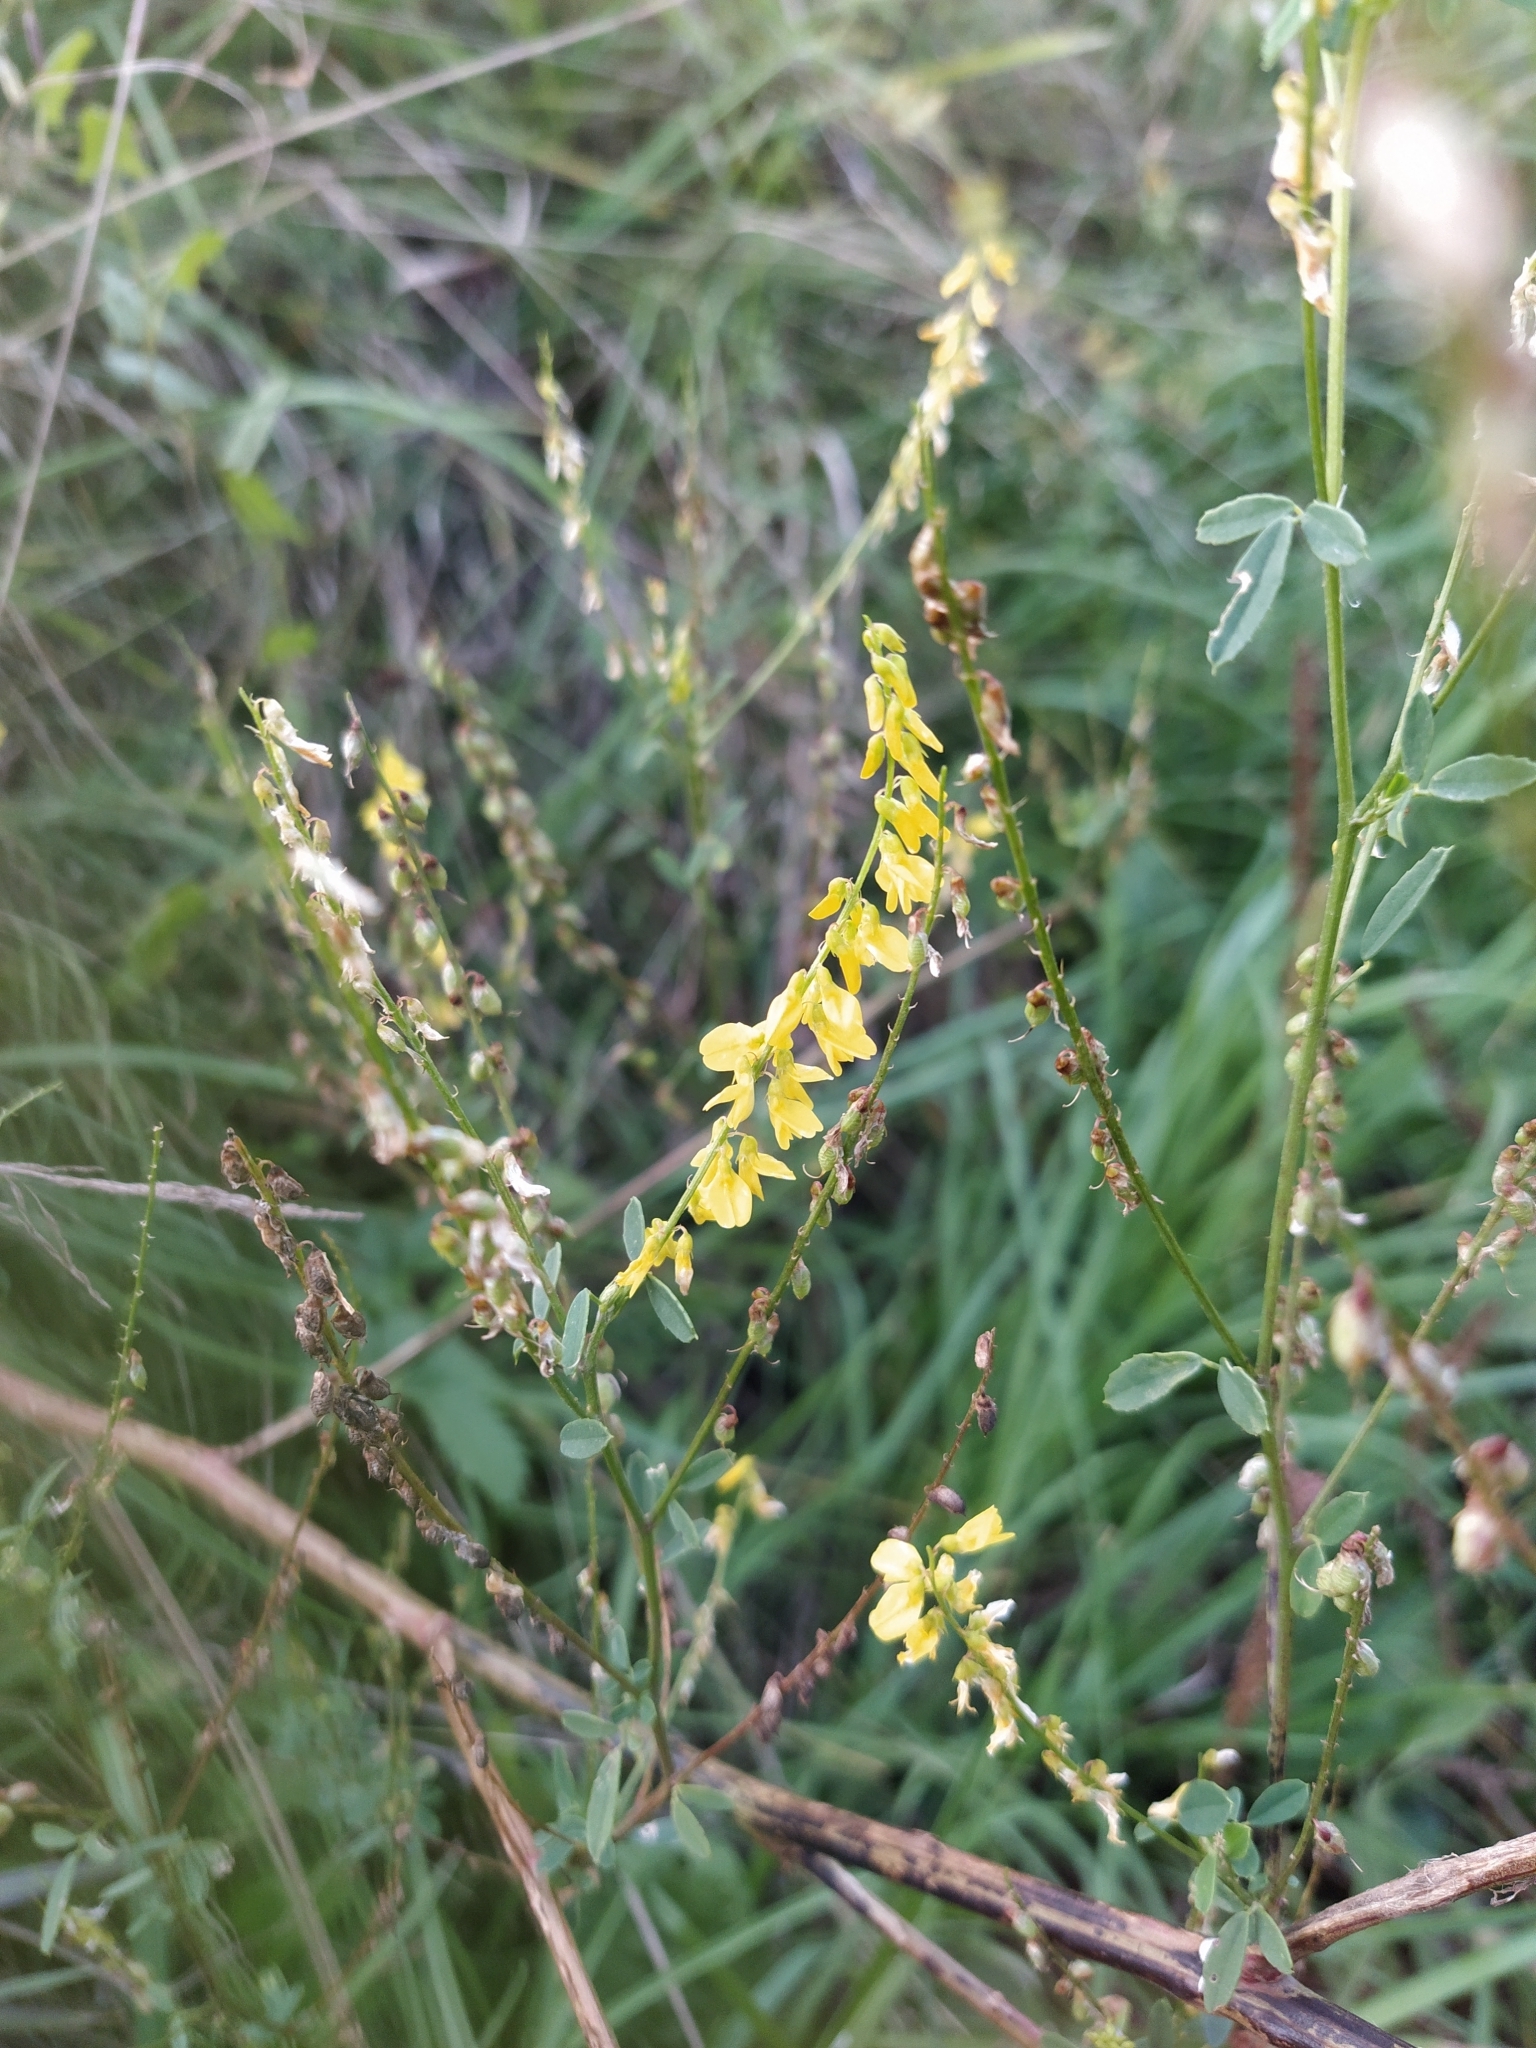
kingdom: Plantae
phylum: Tracheophyta
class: Magnoliopsida
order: Fabales
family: Fabaceae
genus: Melilotus
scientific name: Melilotus officinalis
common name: Sweetclover
